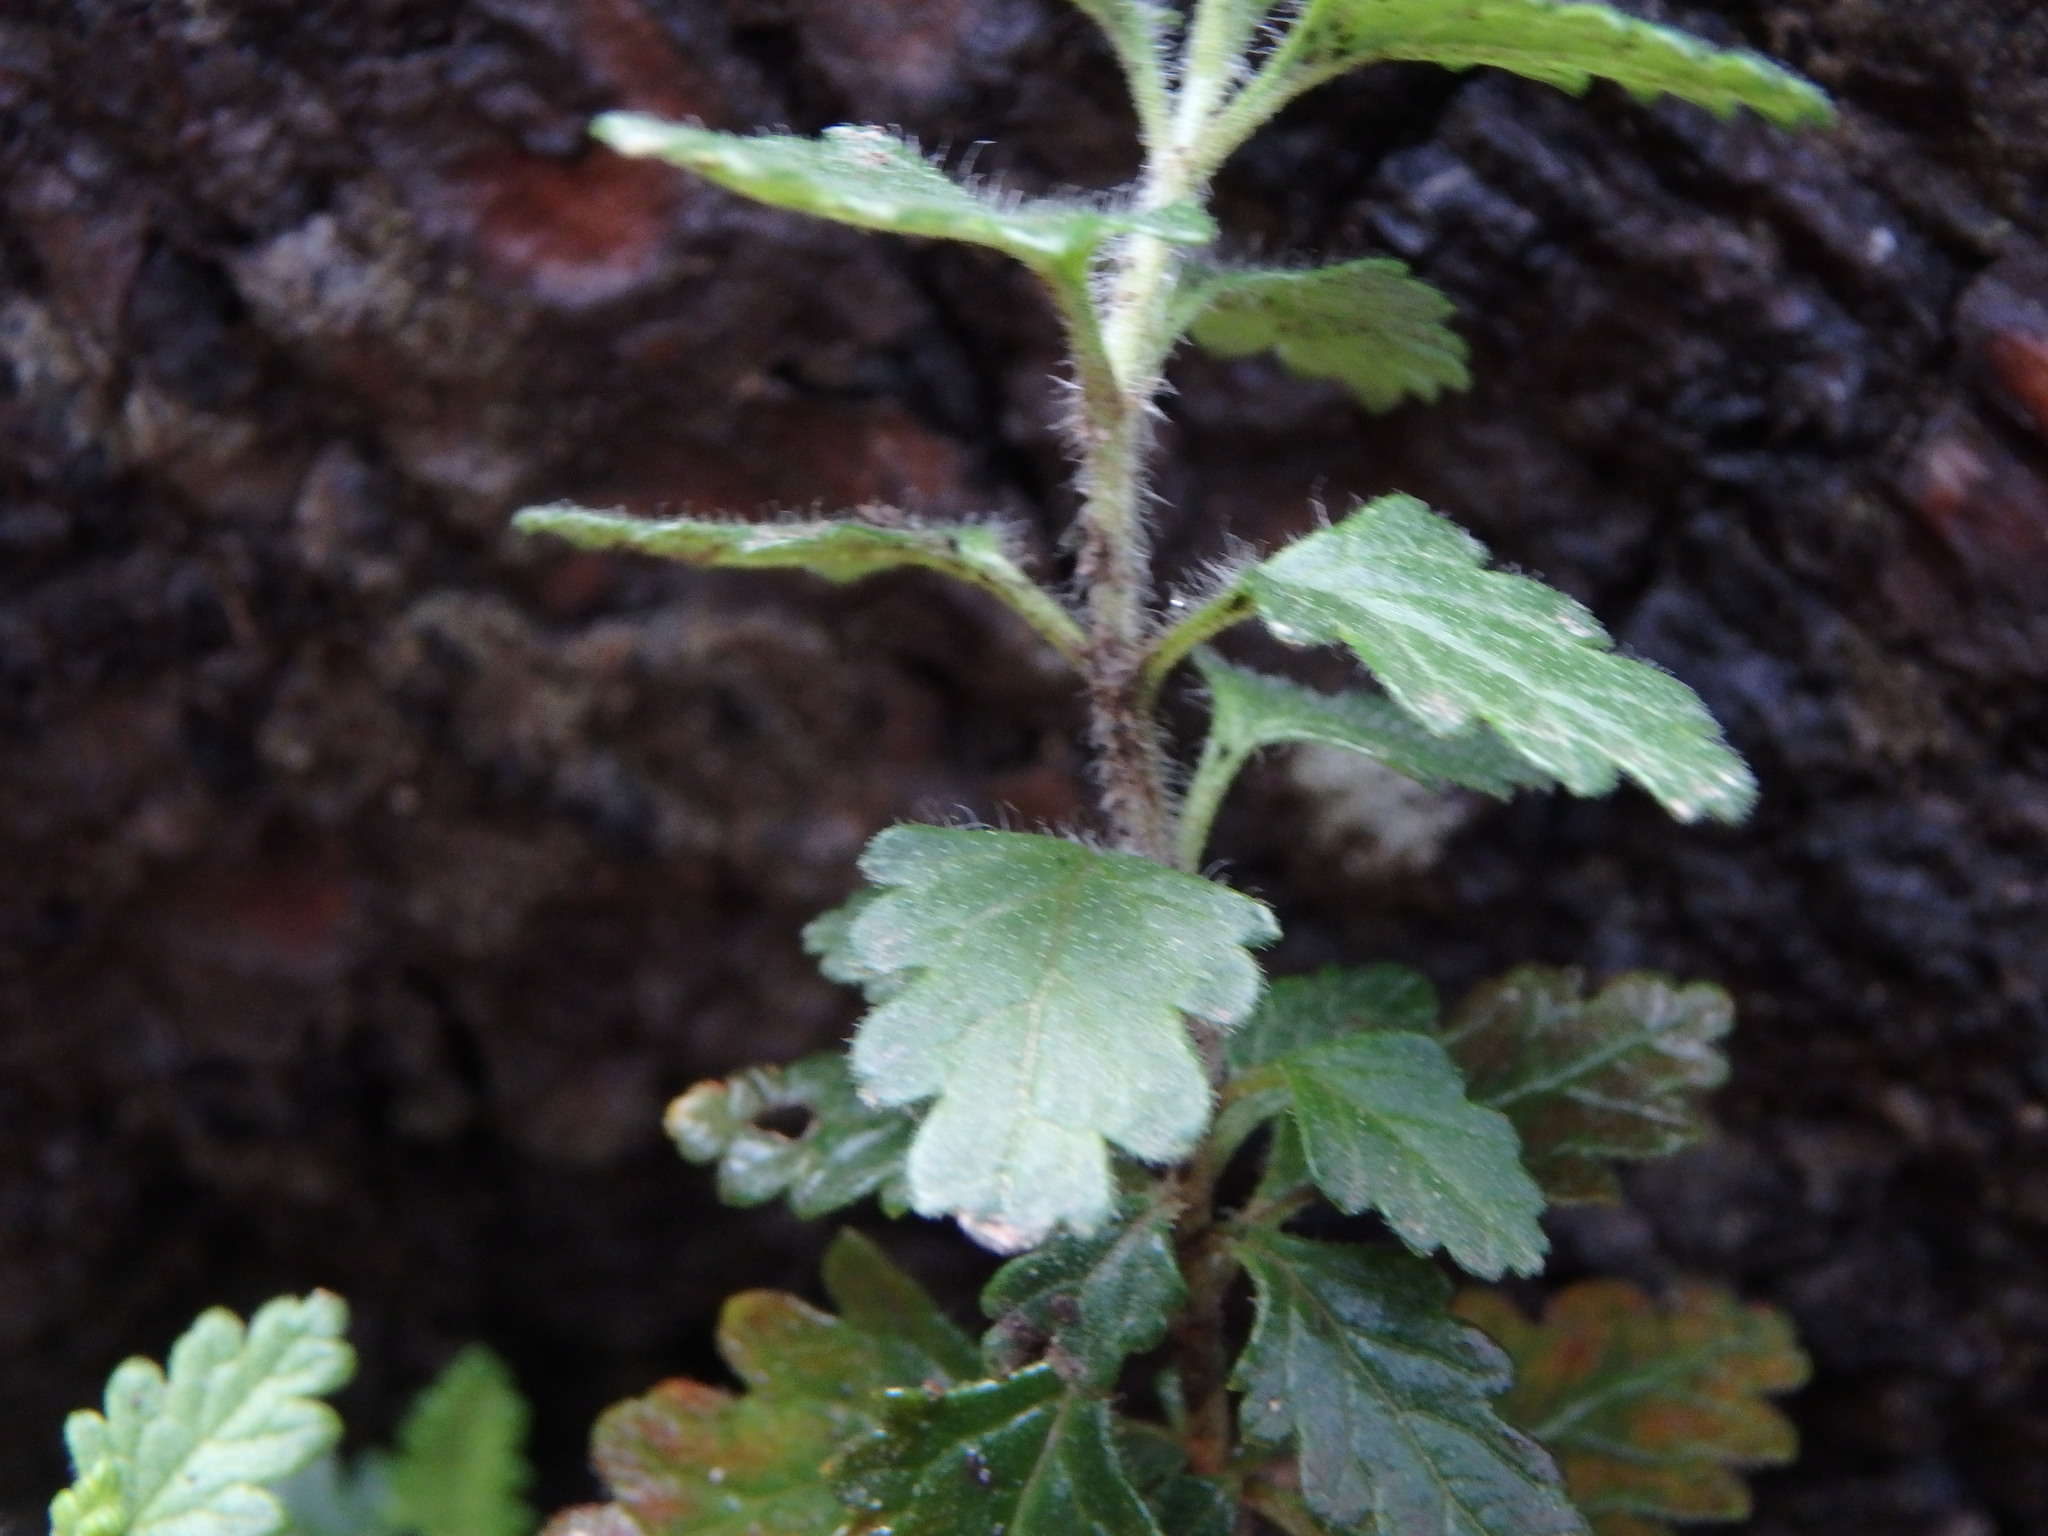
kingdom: Plantae
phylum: Tracheophyta
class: Magnoliopsida
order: Lamiales
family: Lamiaceae
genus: Teucrium
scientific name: Teucrium chamaedrys
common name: Wall germander
